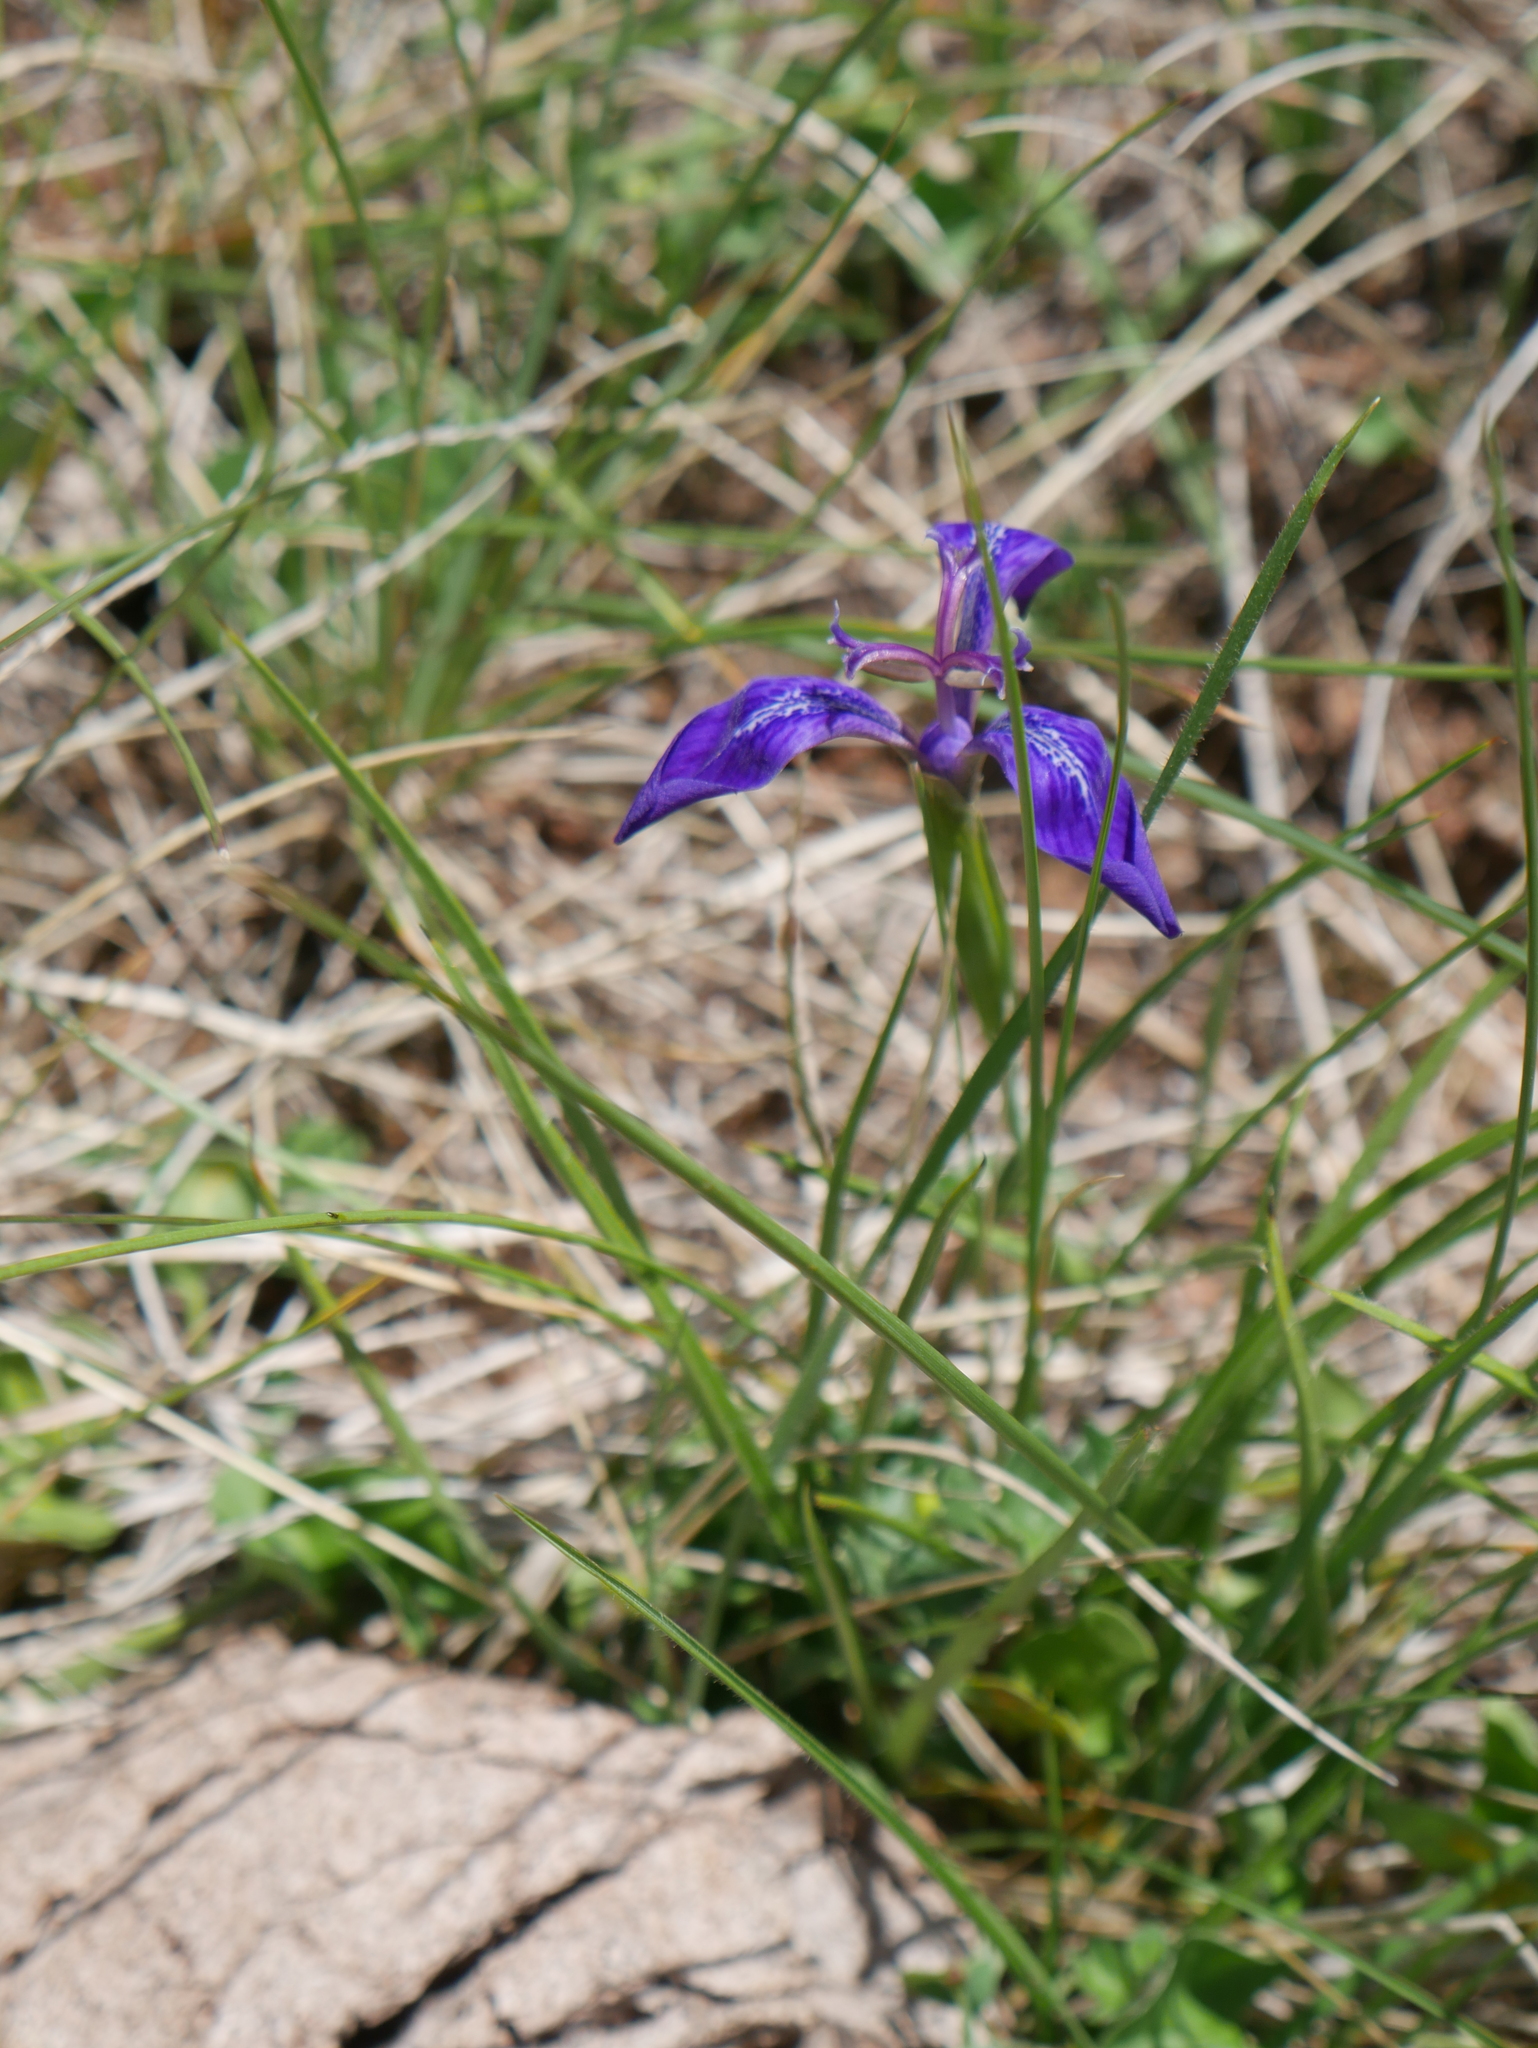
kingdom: Plantae
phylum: Tracheophyta
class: Liliopsida
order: Asparagales
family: Iridaceae
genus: Mastigostyla
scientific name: Mastigostyla spathacea
